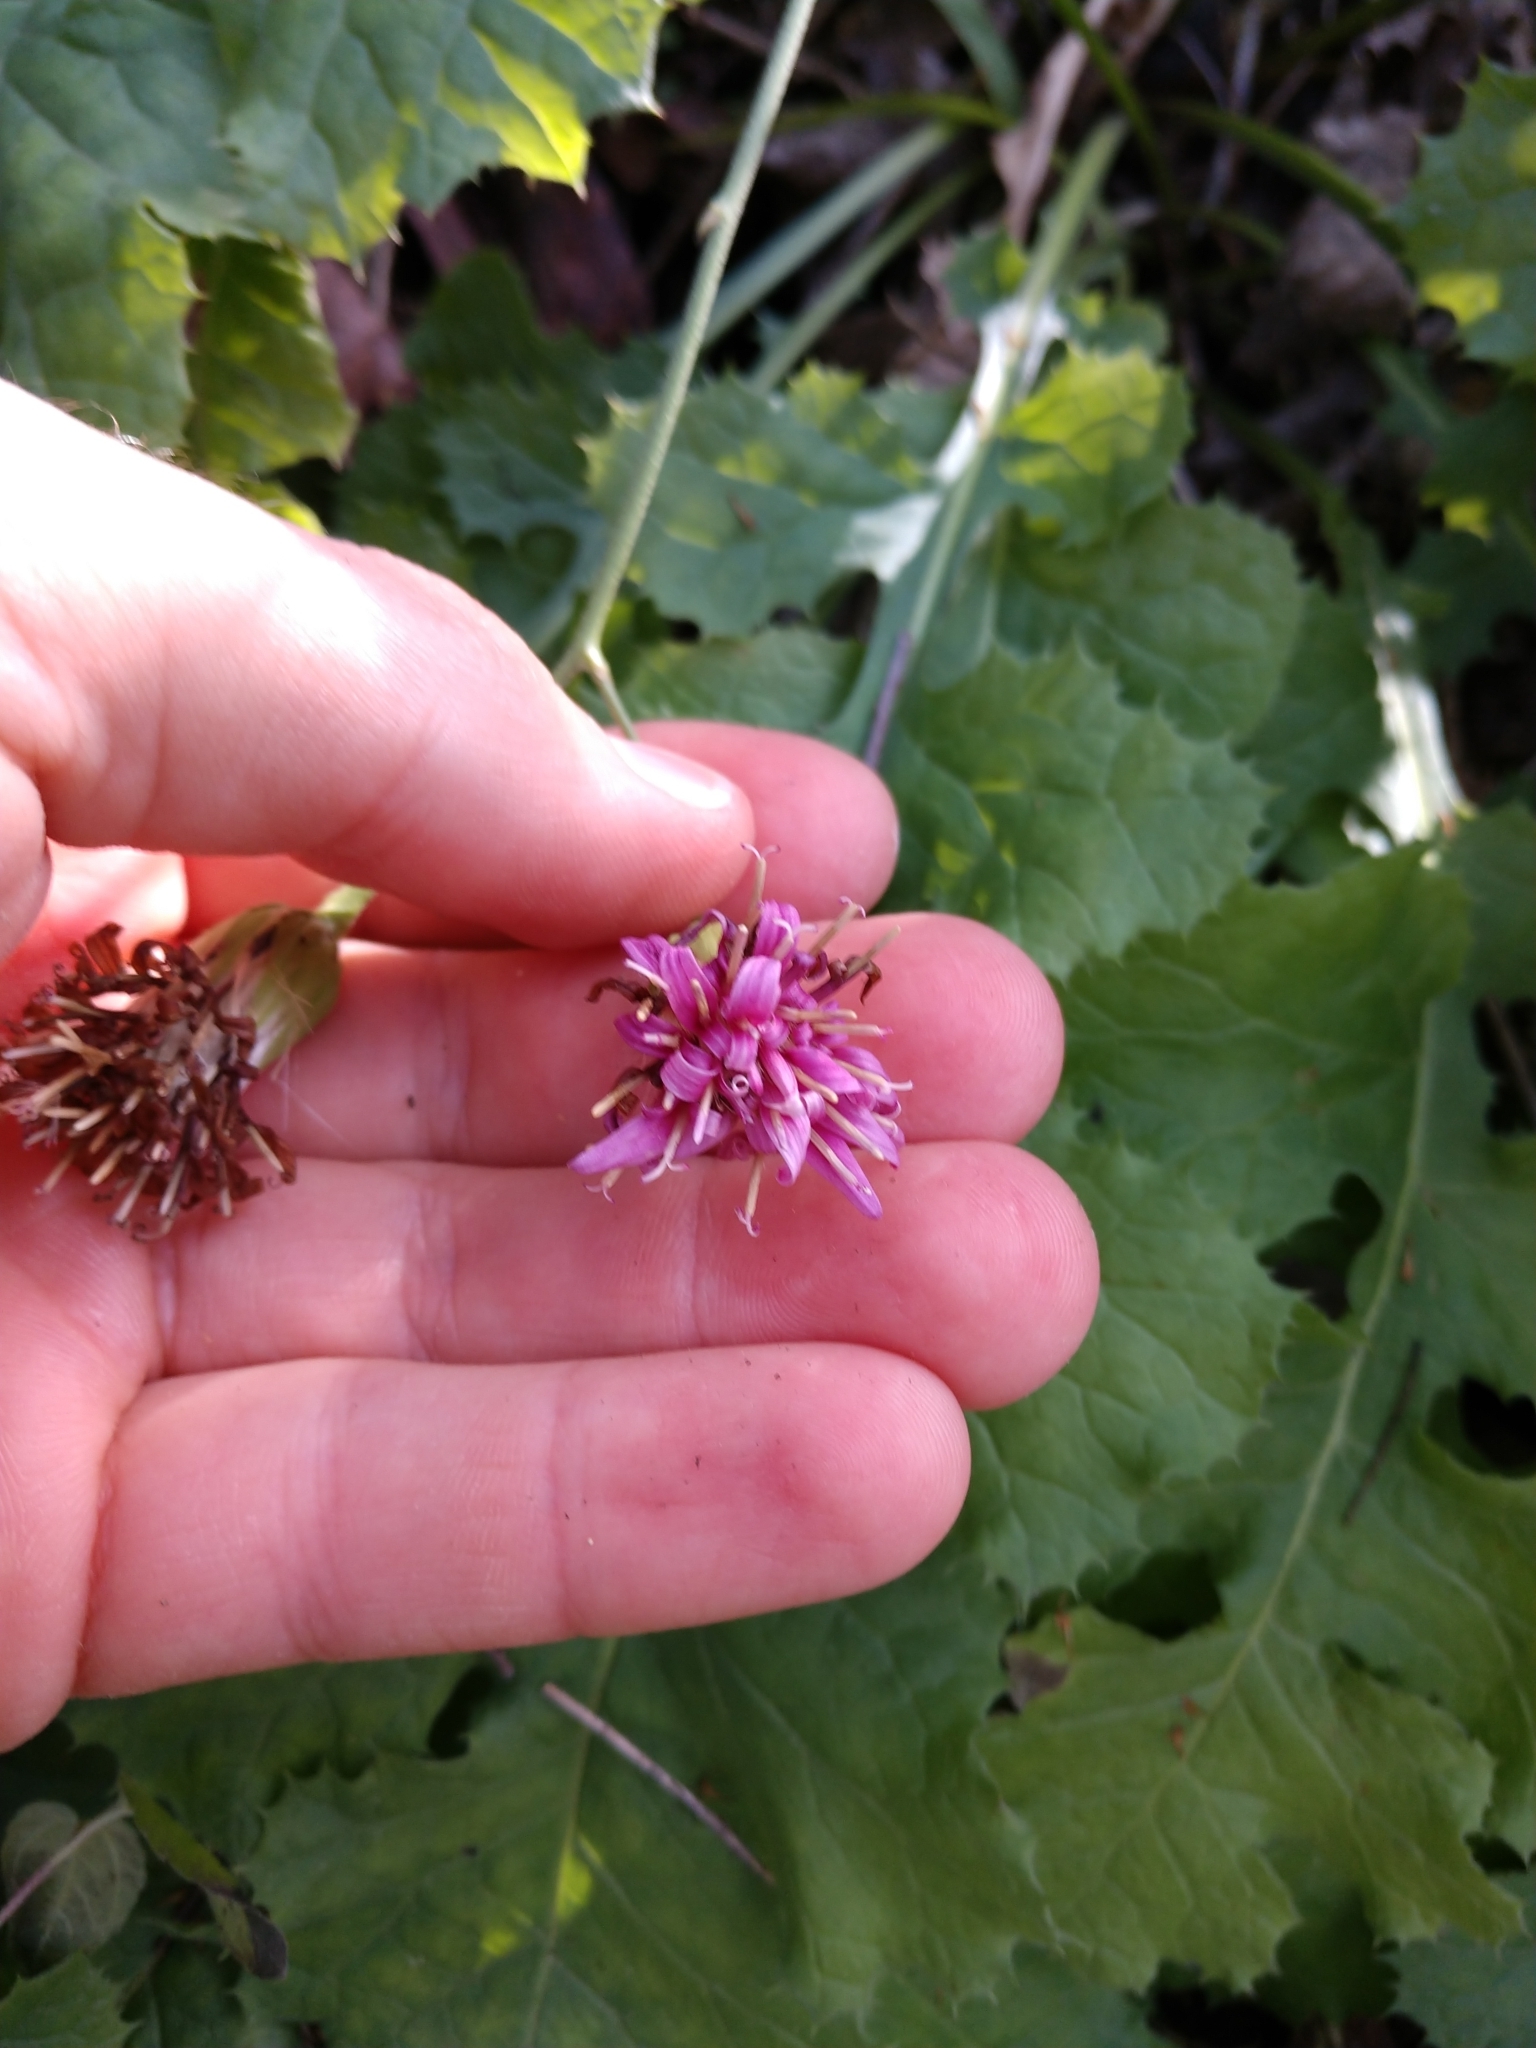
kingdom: Plantae
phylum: Tracheophyta
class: Magnoliopsida
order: Asterales
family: Asteraceae
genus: Acourtia
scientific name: Acourtia runcinata
